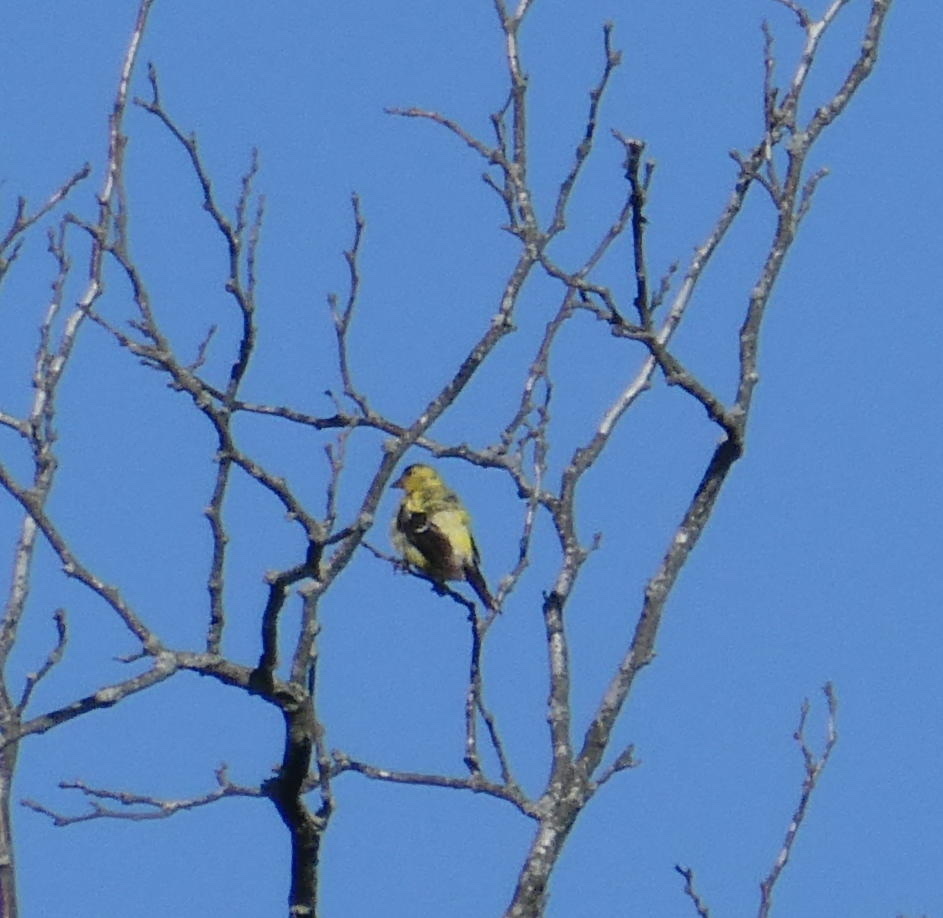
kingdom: Animalia
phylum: Chordata
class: Aves
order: Passeriformes
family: Fringillidae
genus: Spinus
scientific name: Spinus tristis
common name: American goldfinch
